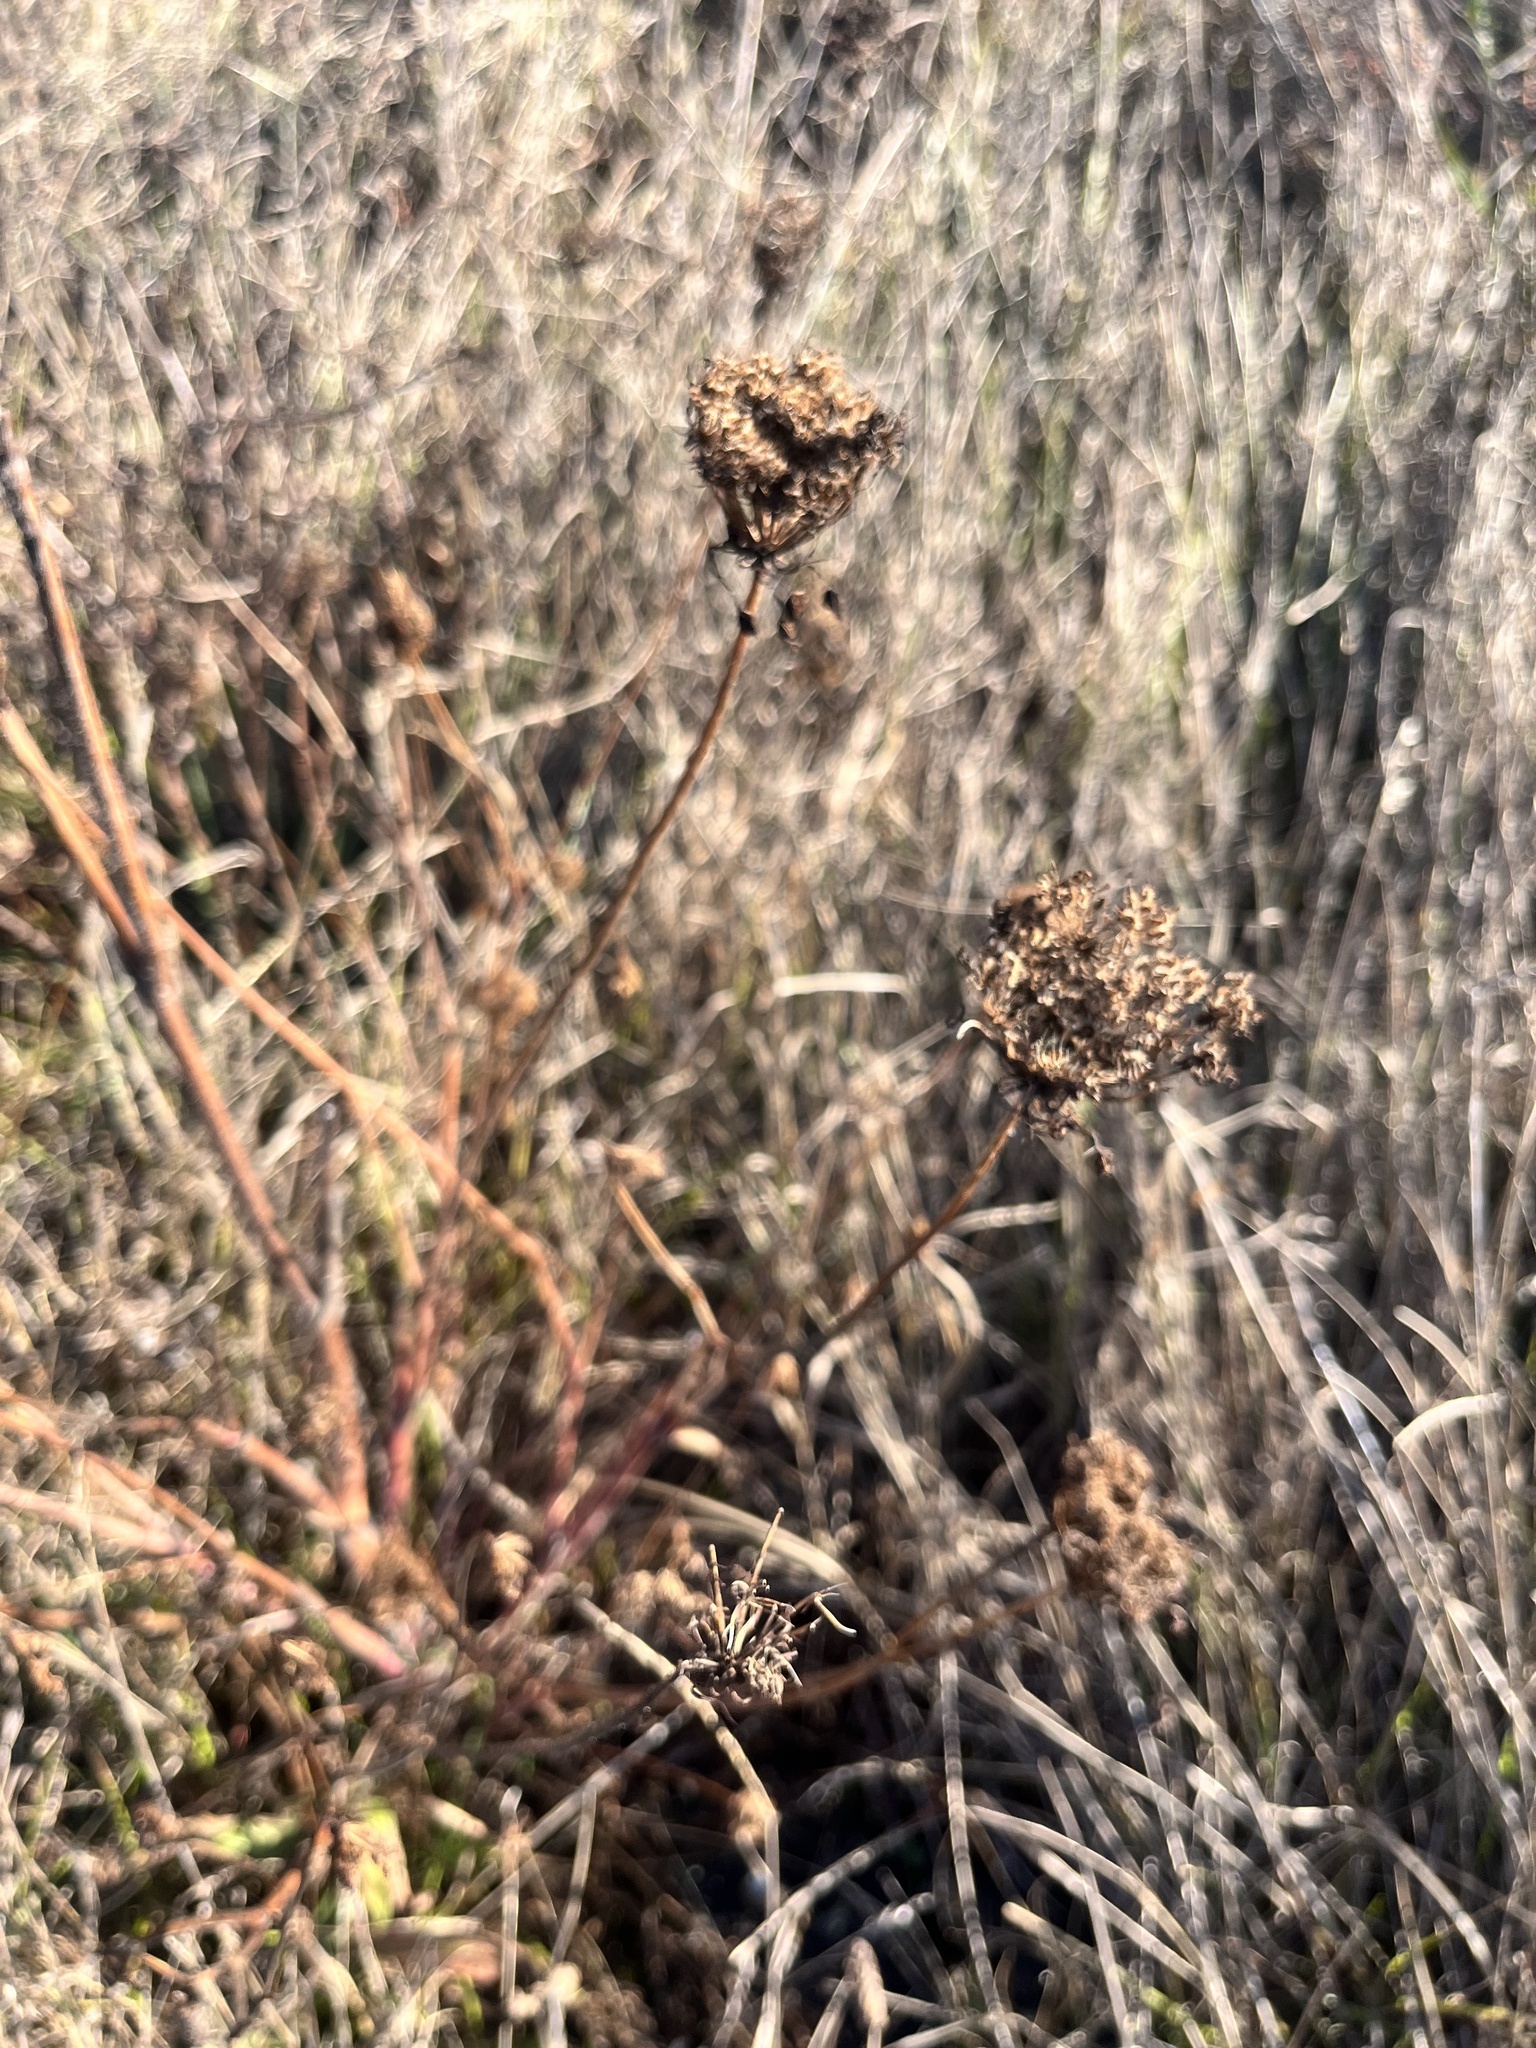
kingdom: Plantae
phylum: Tracheophyta
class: Magnoliopsida
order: Apiales
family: Apiaceae
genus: Daucus
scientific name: Daucus carota
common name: Wild carrot
